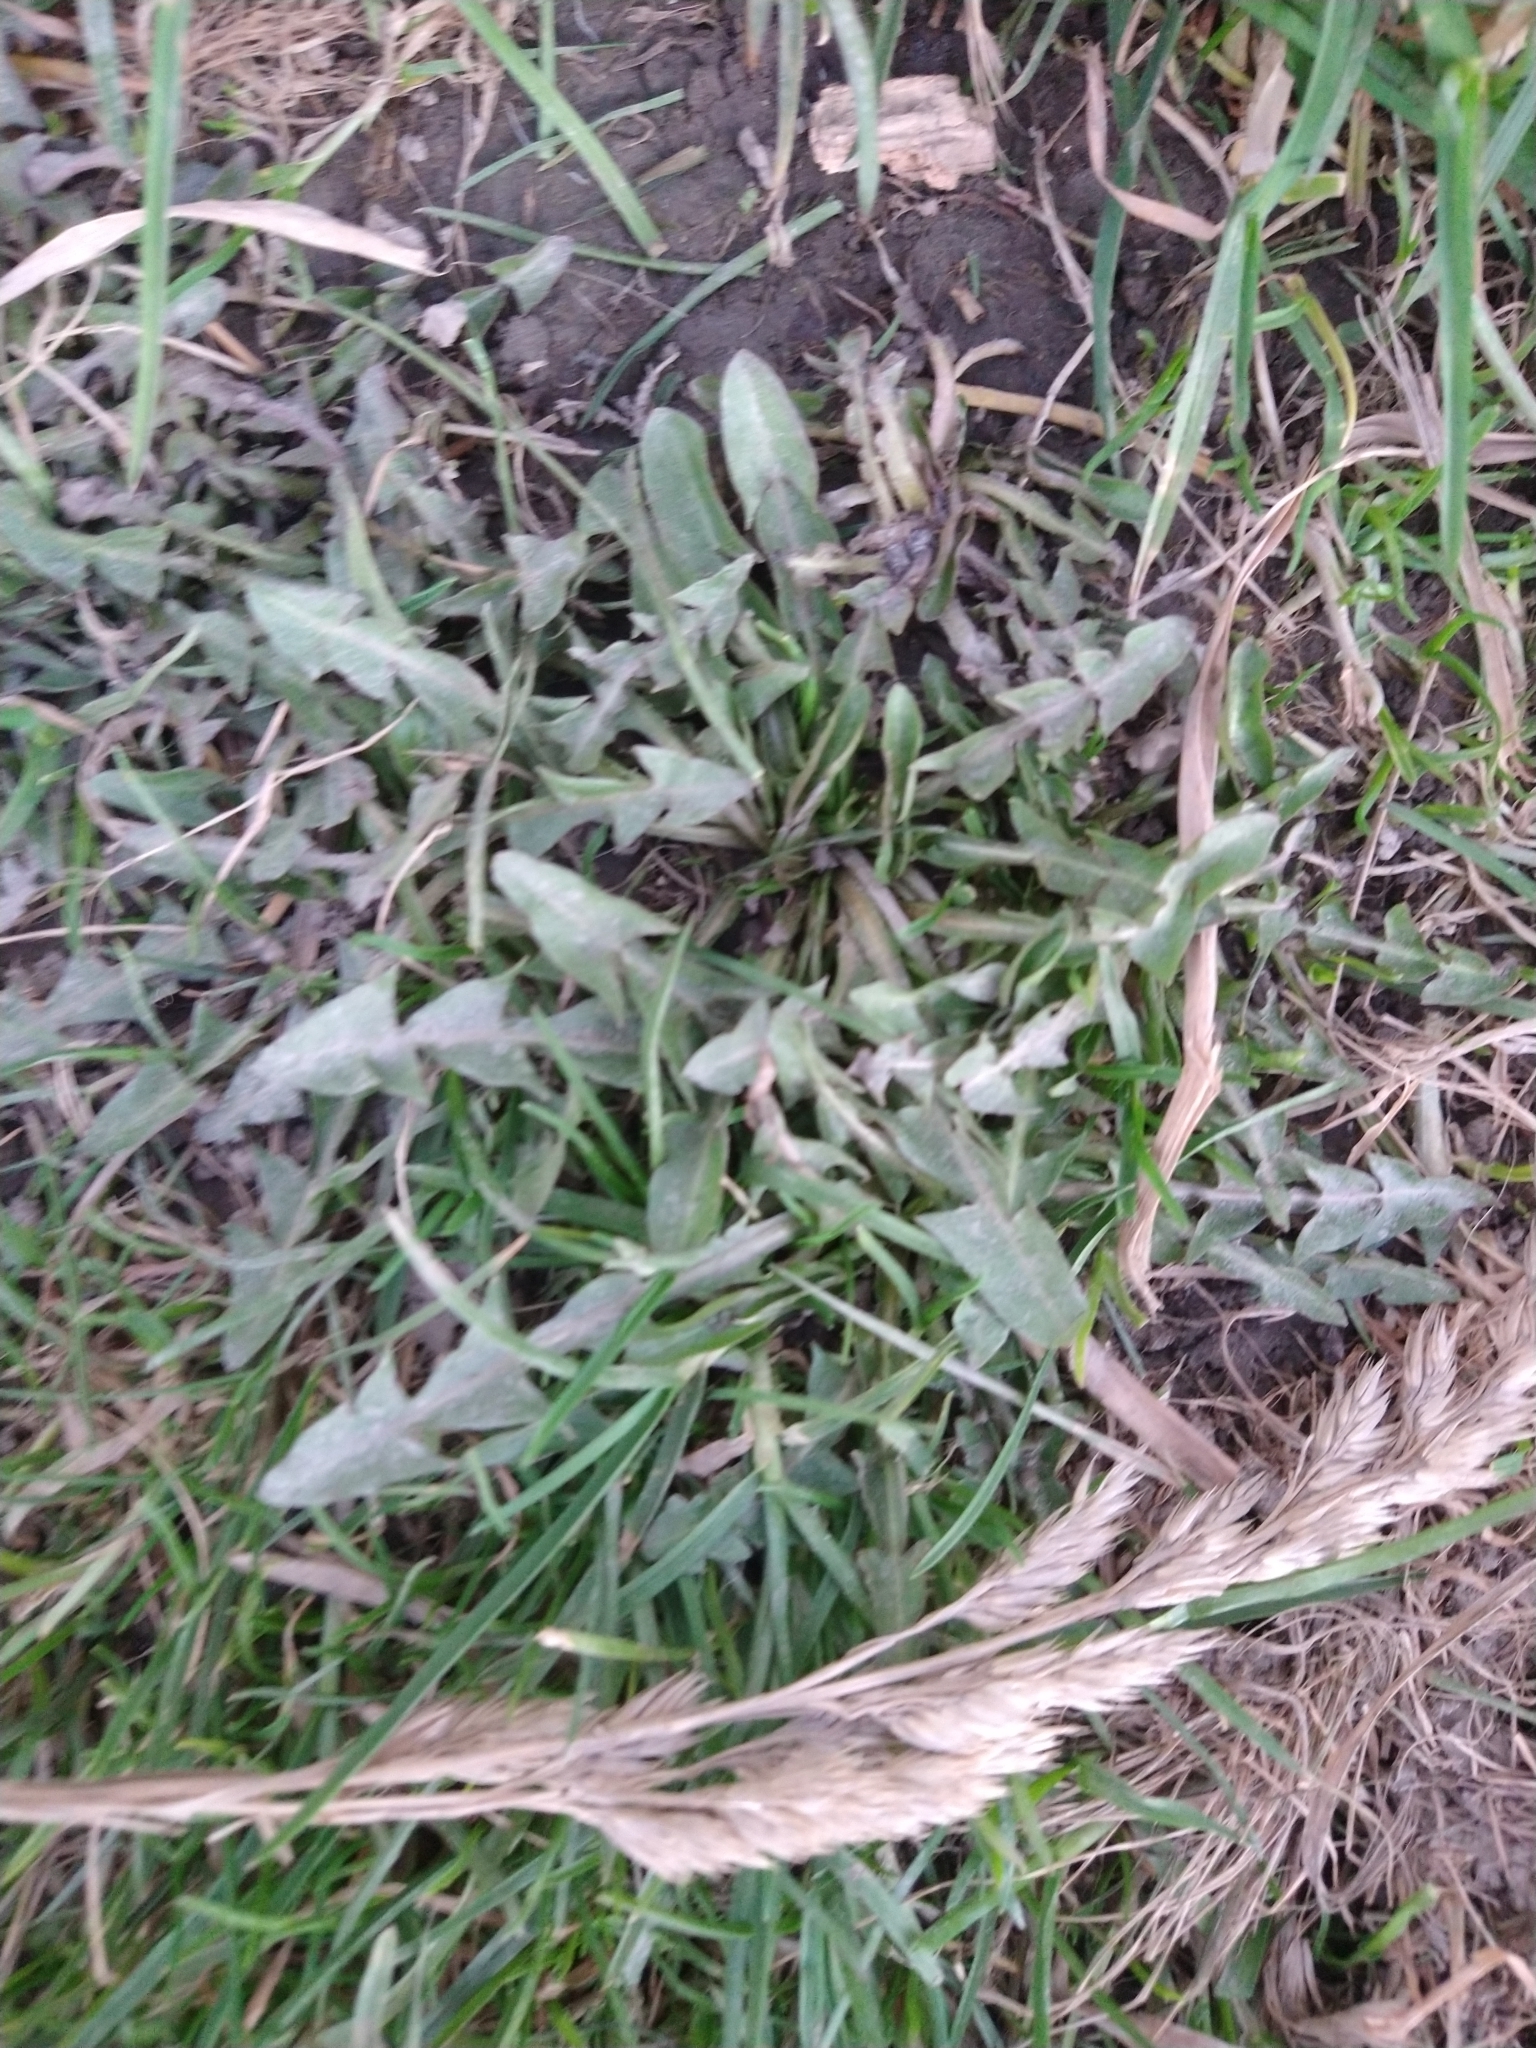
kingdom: Plantae
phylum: Tracheophyta
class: Magnoliopsida
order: Asterales
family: Asteraceae
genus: Taraxacum
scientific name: Taraxacum officinale
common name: Common dandelion
